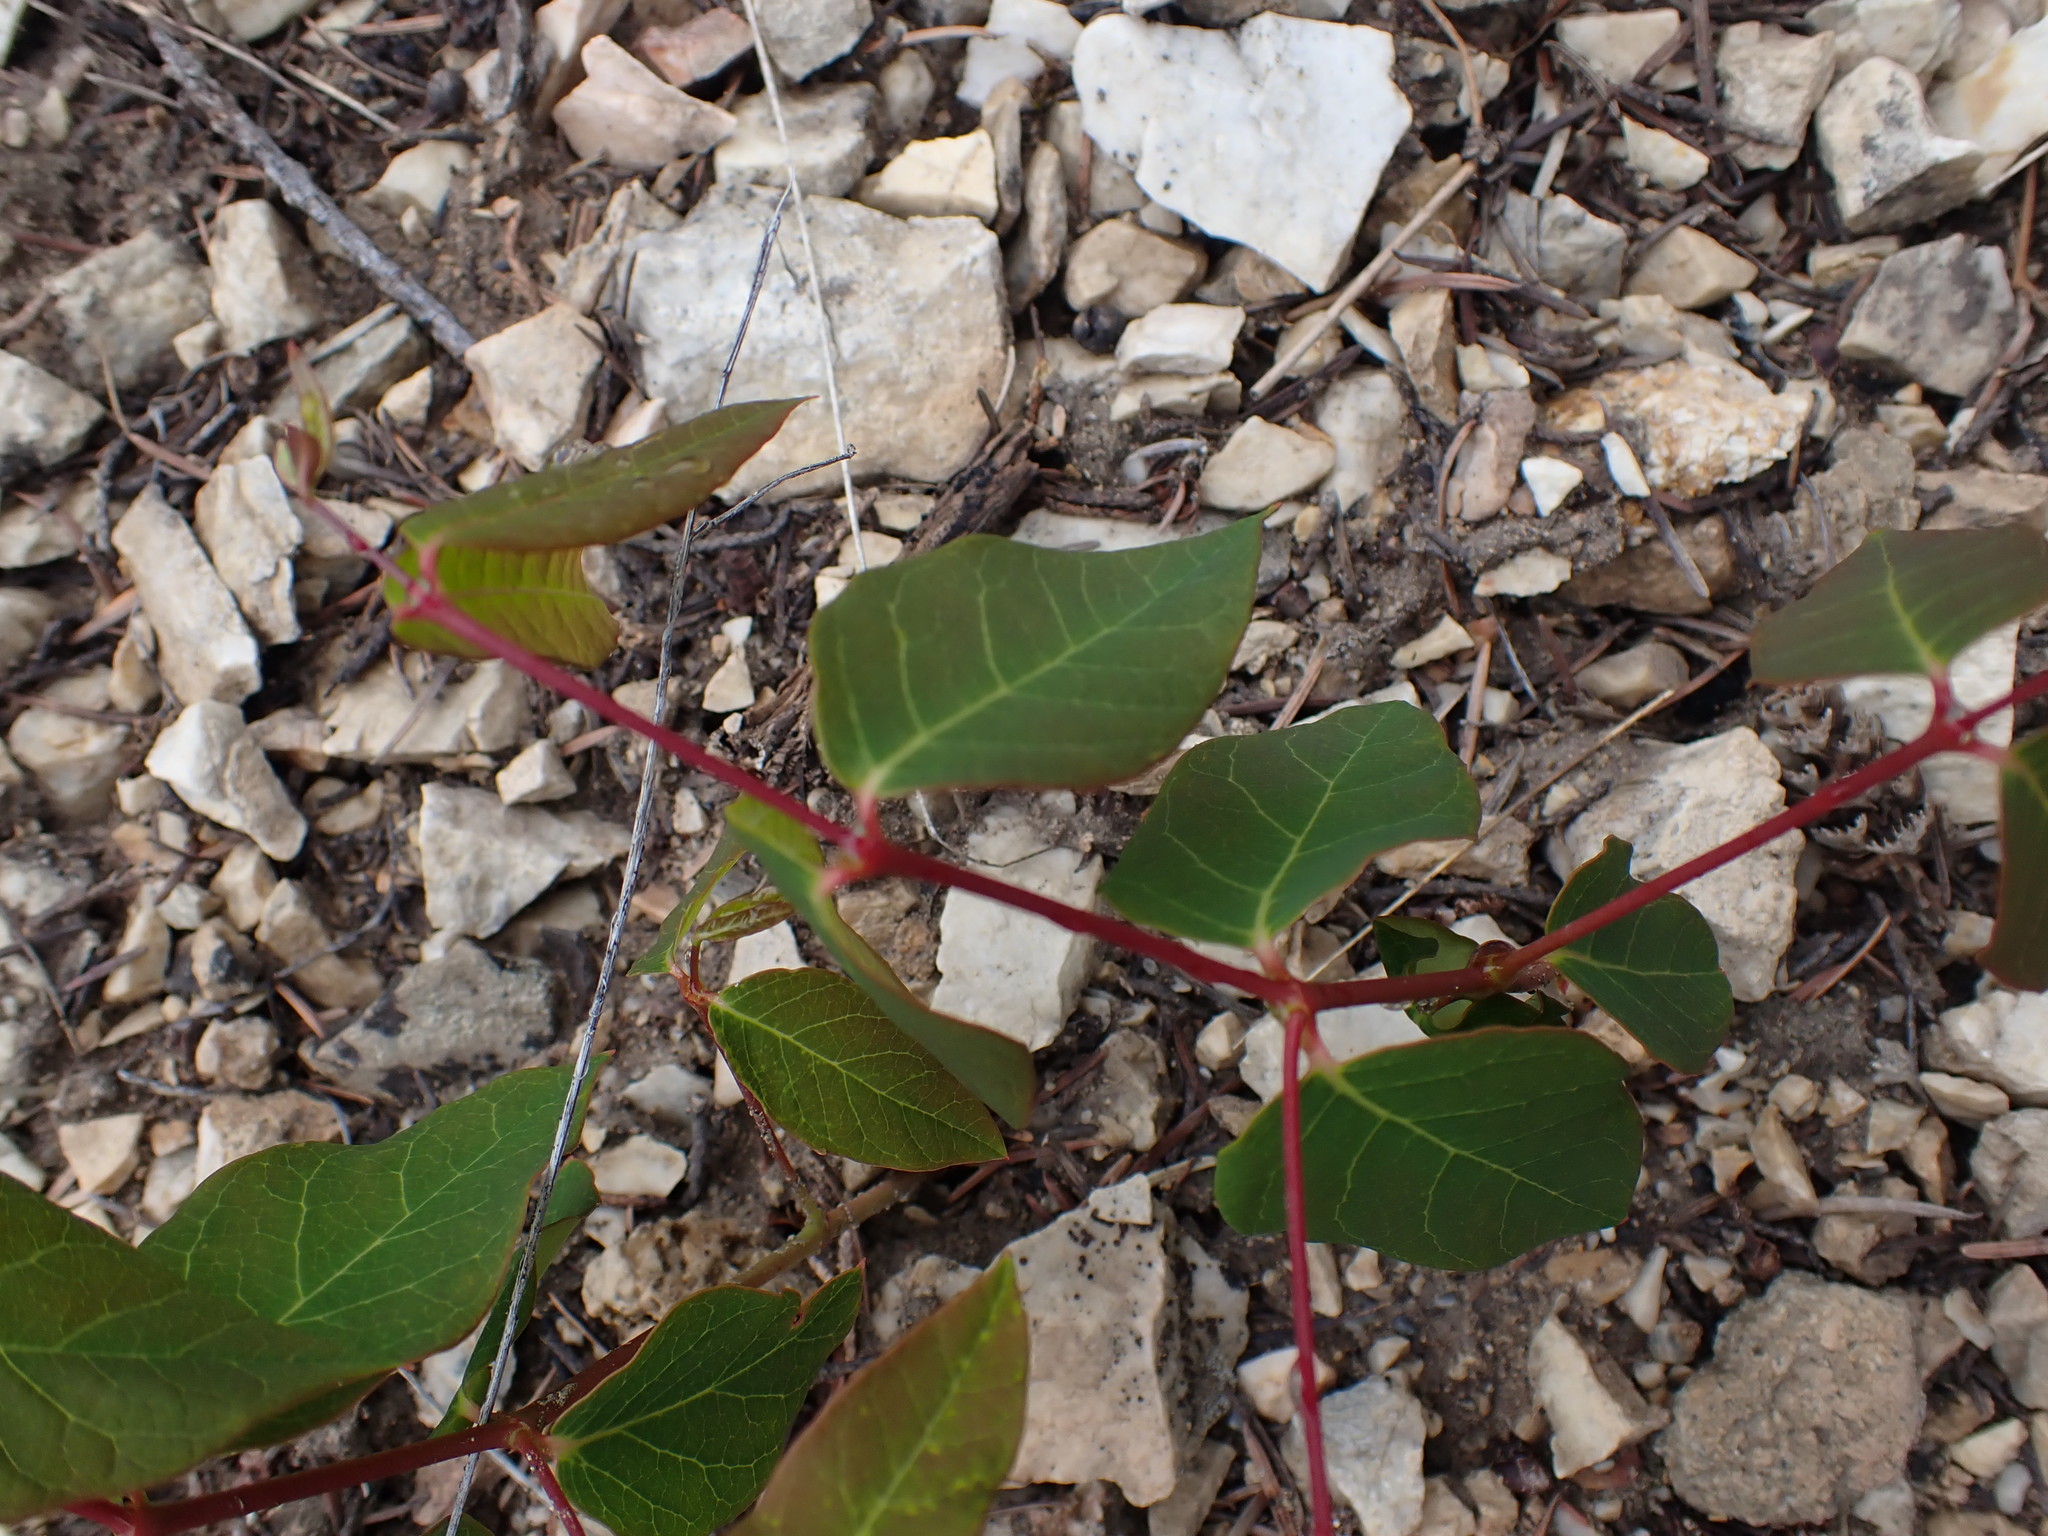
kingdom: Plantae
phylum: Tracheophyta
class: Magnoliopsida
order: Gentianales
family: Apocynaceae
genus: Apocynum
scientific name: Apocynum androsaemifolium
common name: Spreading dogbane
